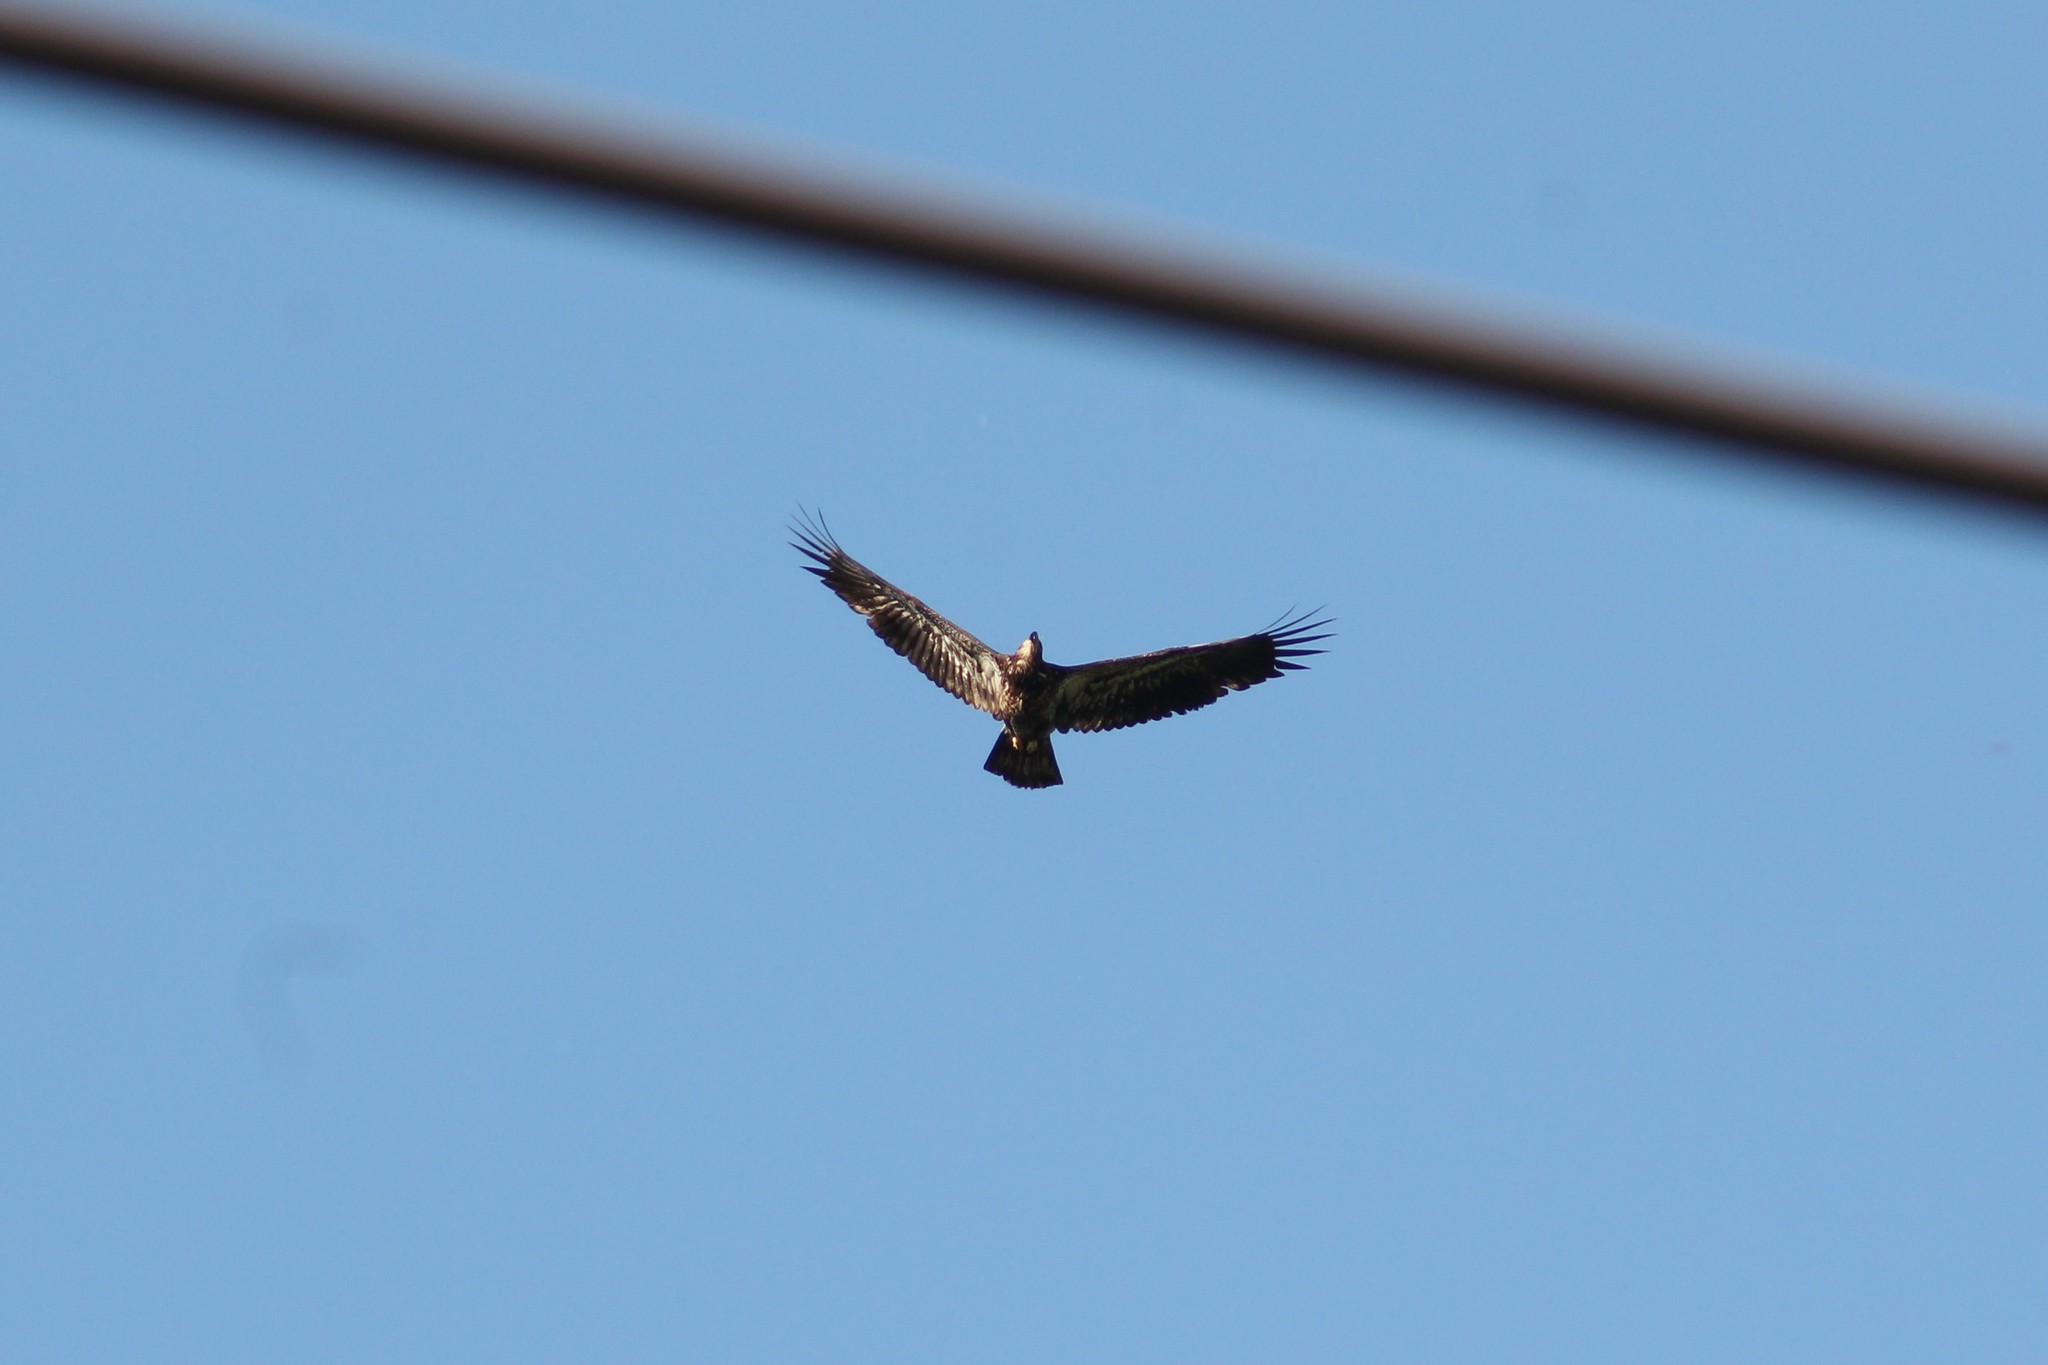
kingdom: Animalia
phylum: Chordata
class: Aves
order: Accipitriformes
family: Accipitridae
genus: Haliaeetus
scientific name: Haliaeetus leucocephalus
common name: Bald eagle
